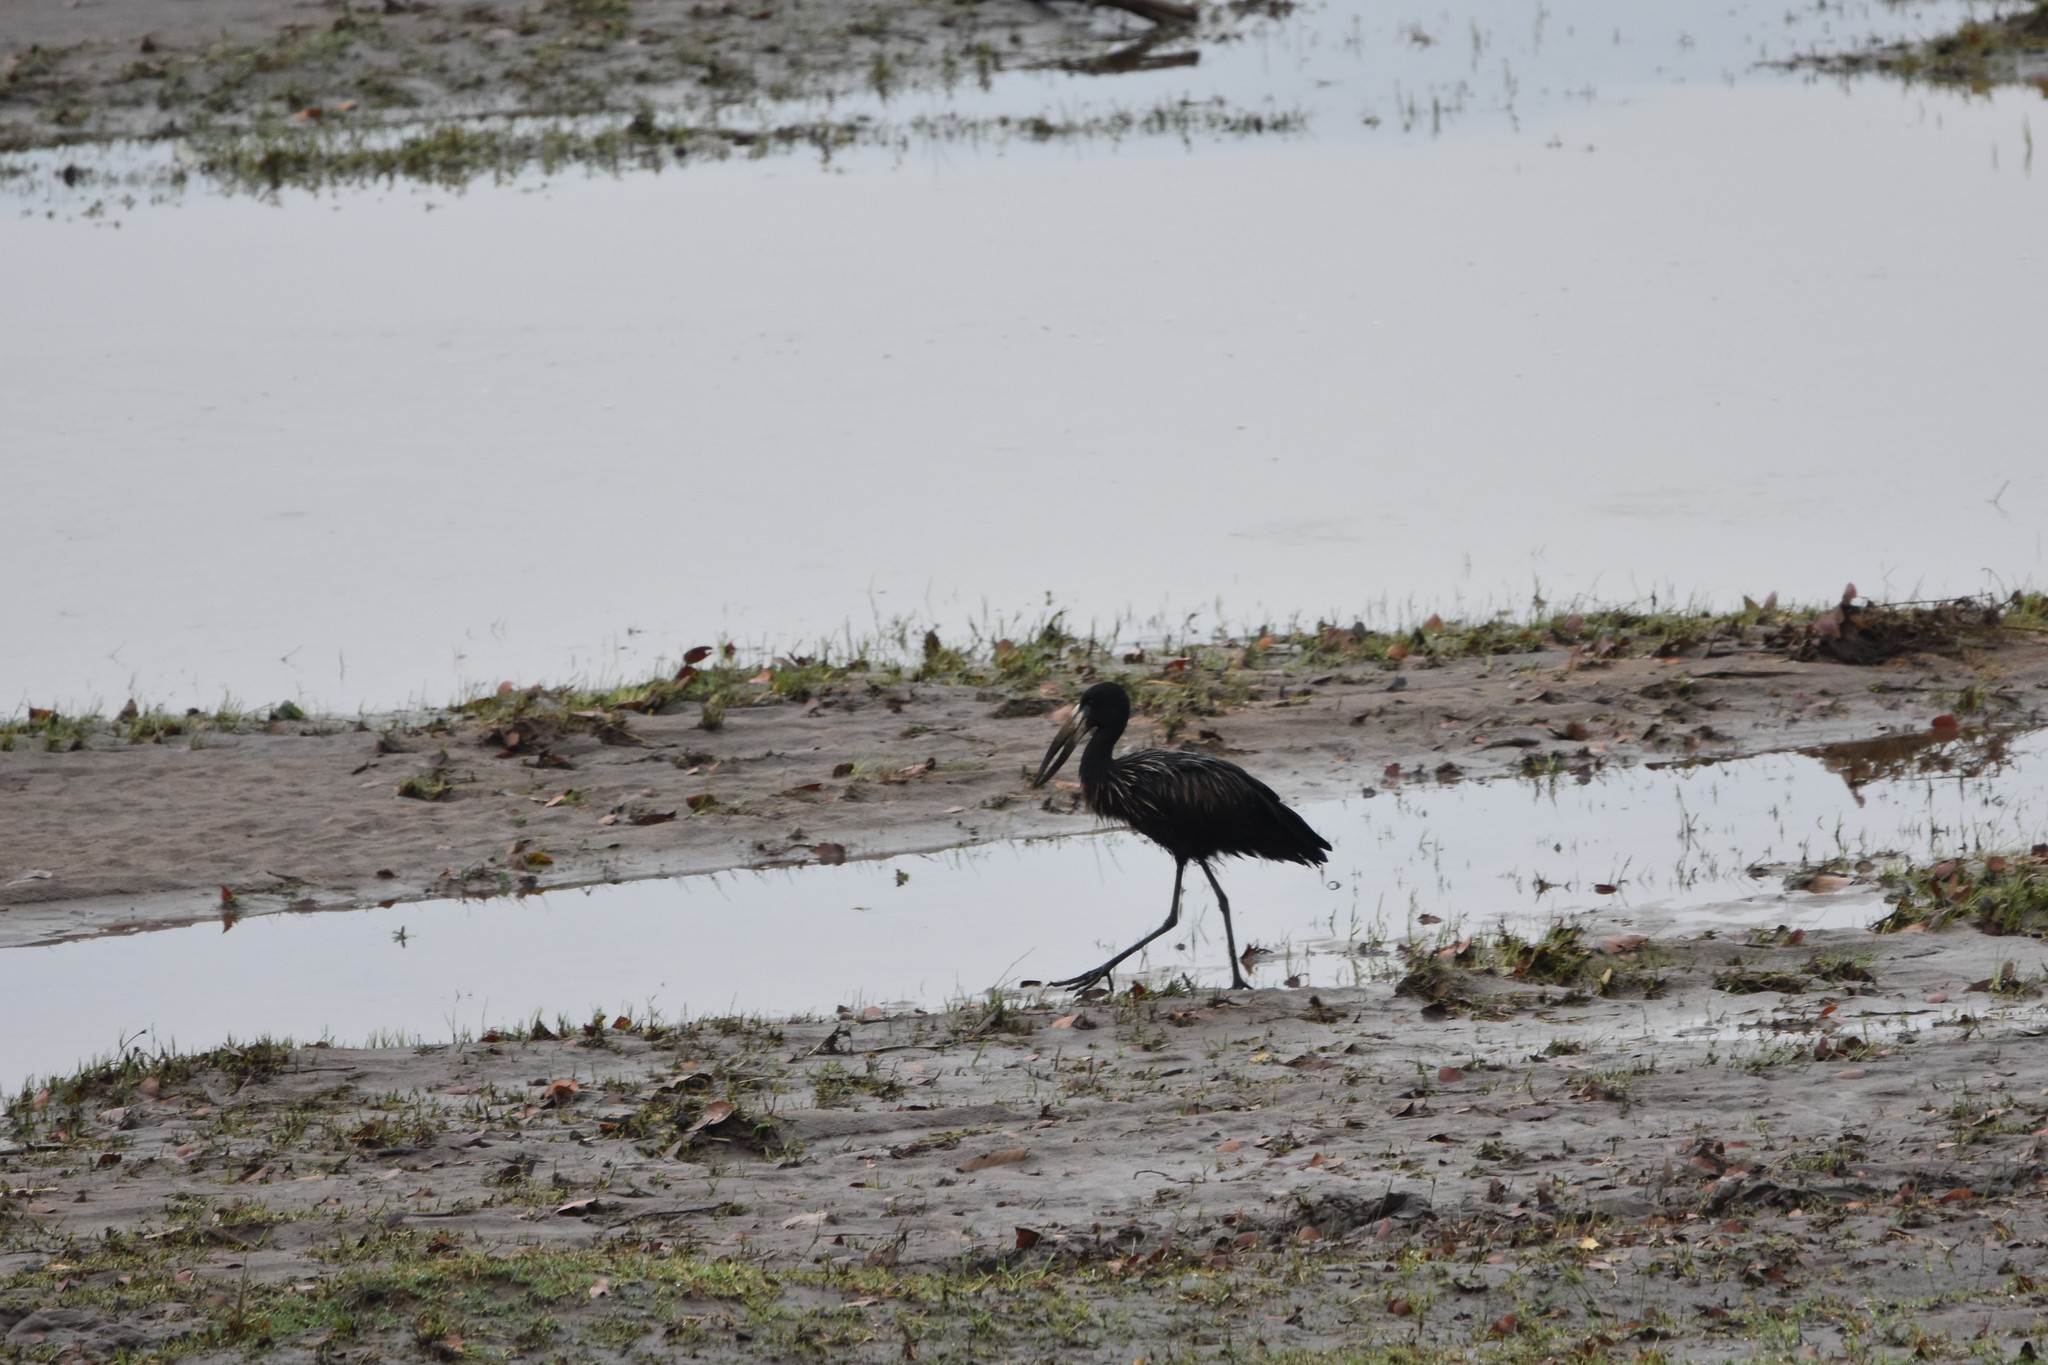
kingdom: Animalia
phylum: Chordata
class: Aves
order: Ciconiiformes
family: Ciconiidae
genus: Anastomus
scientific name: Anastomus lamelligerus
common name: African openbill
